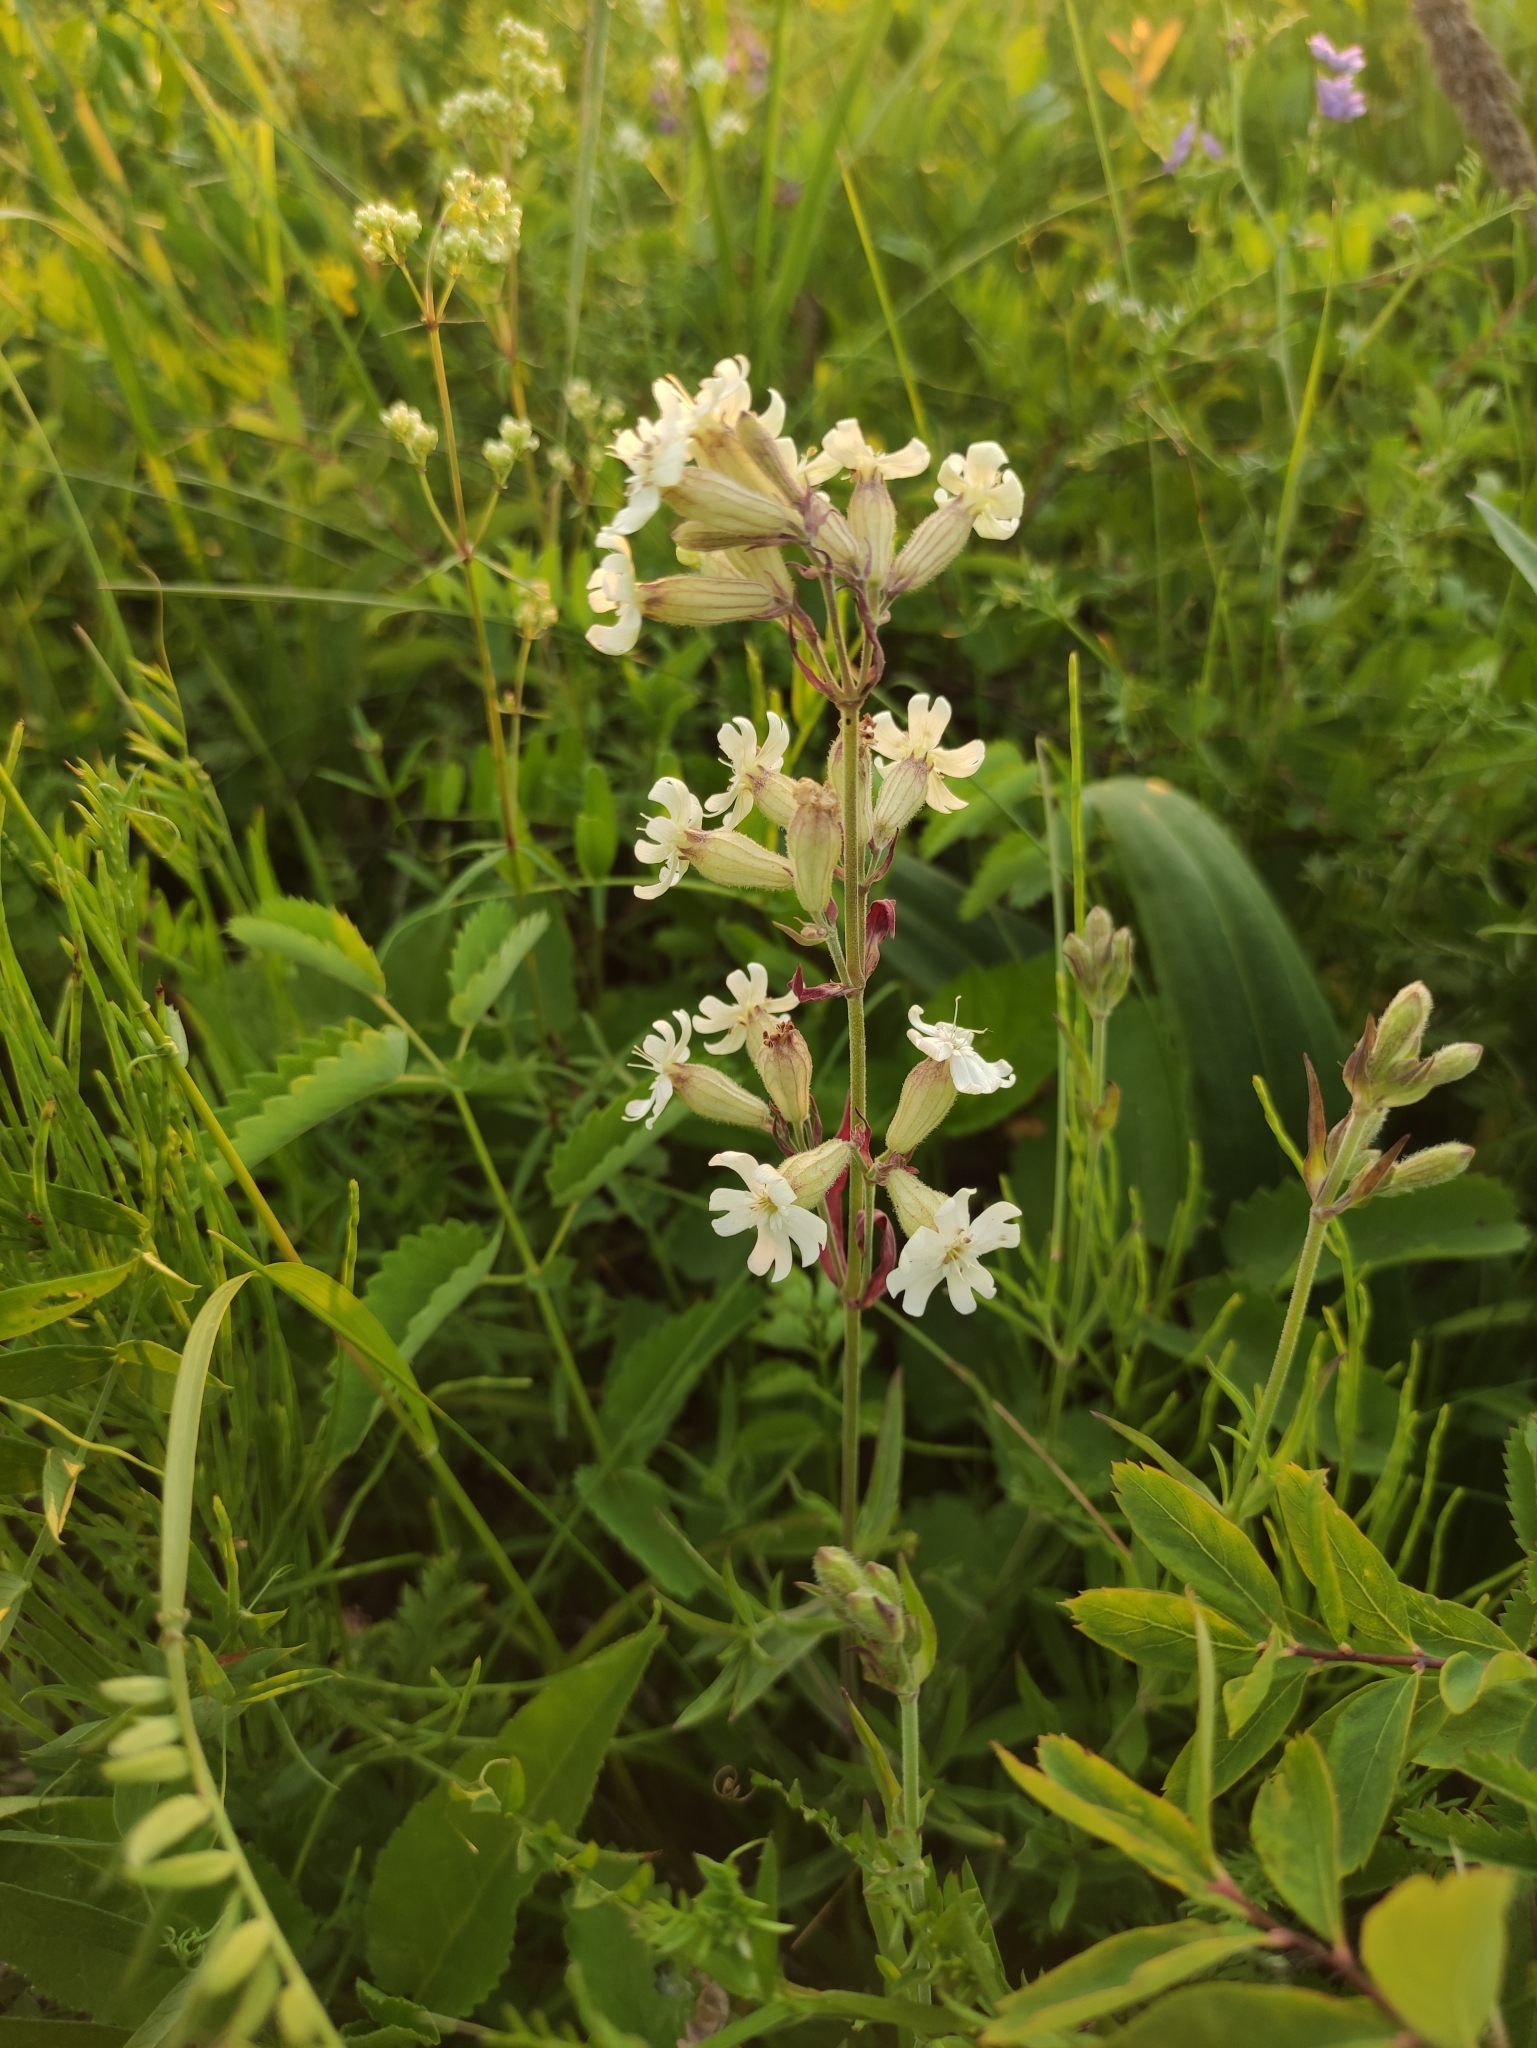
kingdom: Plantae
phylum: Tracheophyta
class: Magnoliopsida
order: Caryophyllales
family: Caryophyllaceae
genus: Silene
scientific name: Silene amoena
